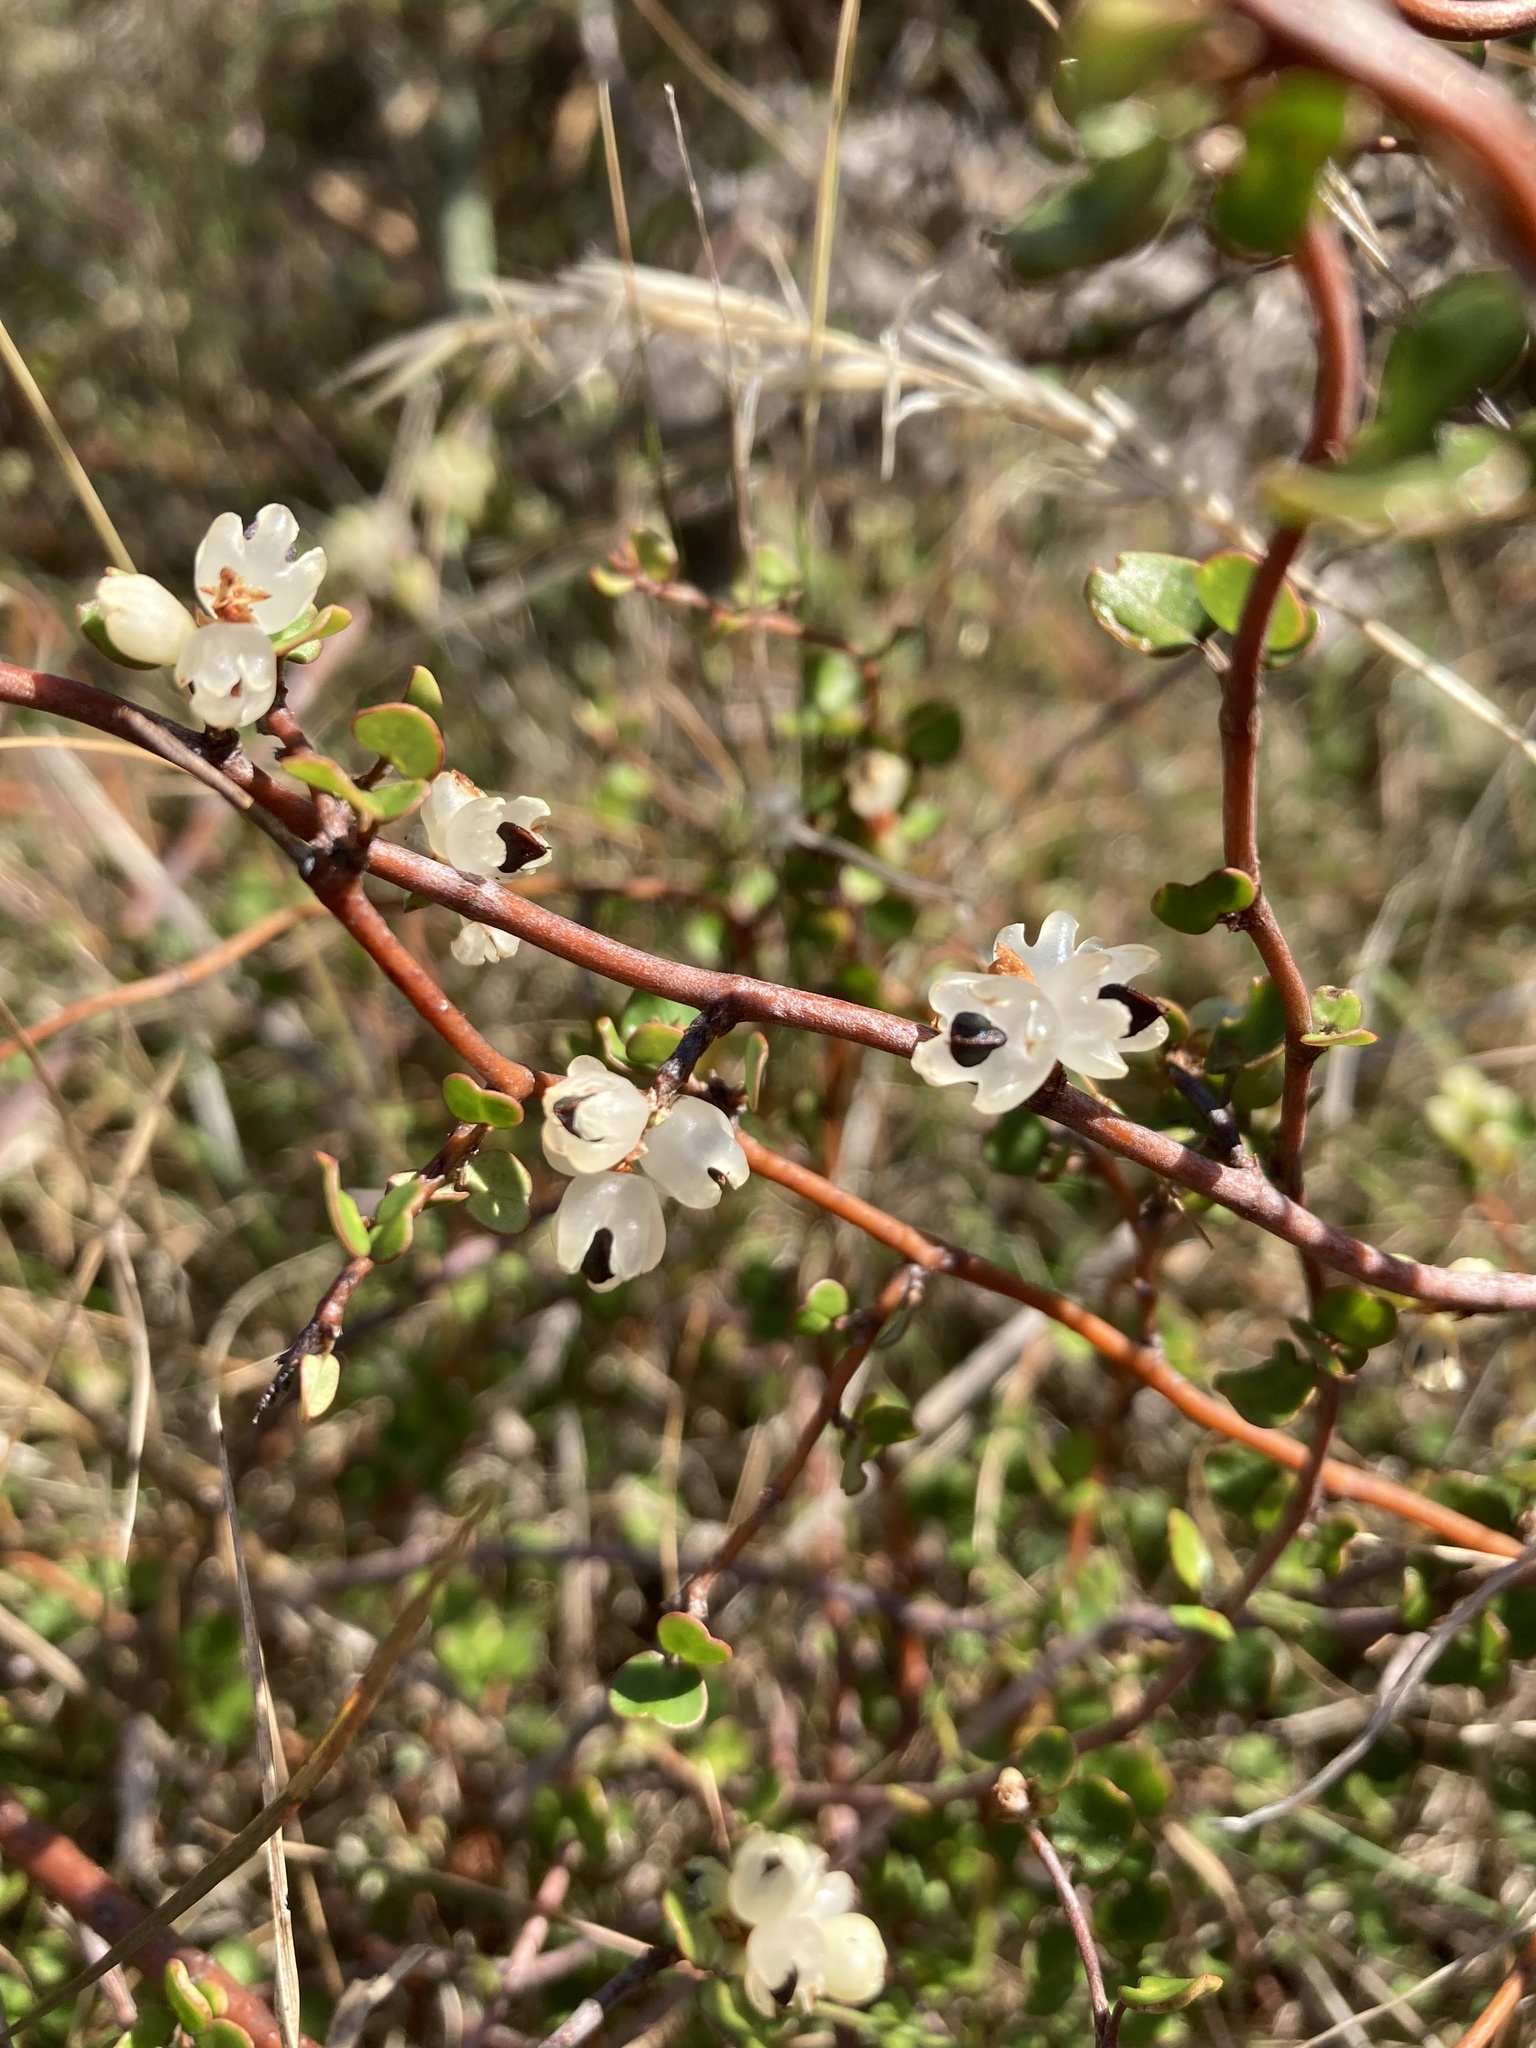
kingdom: Plantae
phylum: Tracheophyta
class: Magnoliopsida
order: Caryophyllales
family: Polygonaceae
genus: Muehlenbeckia
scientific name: Muehlenbeckia complexa
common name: Wireplant
